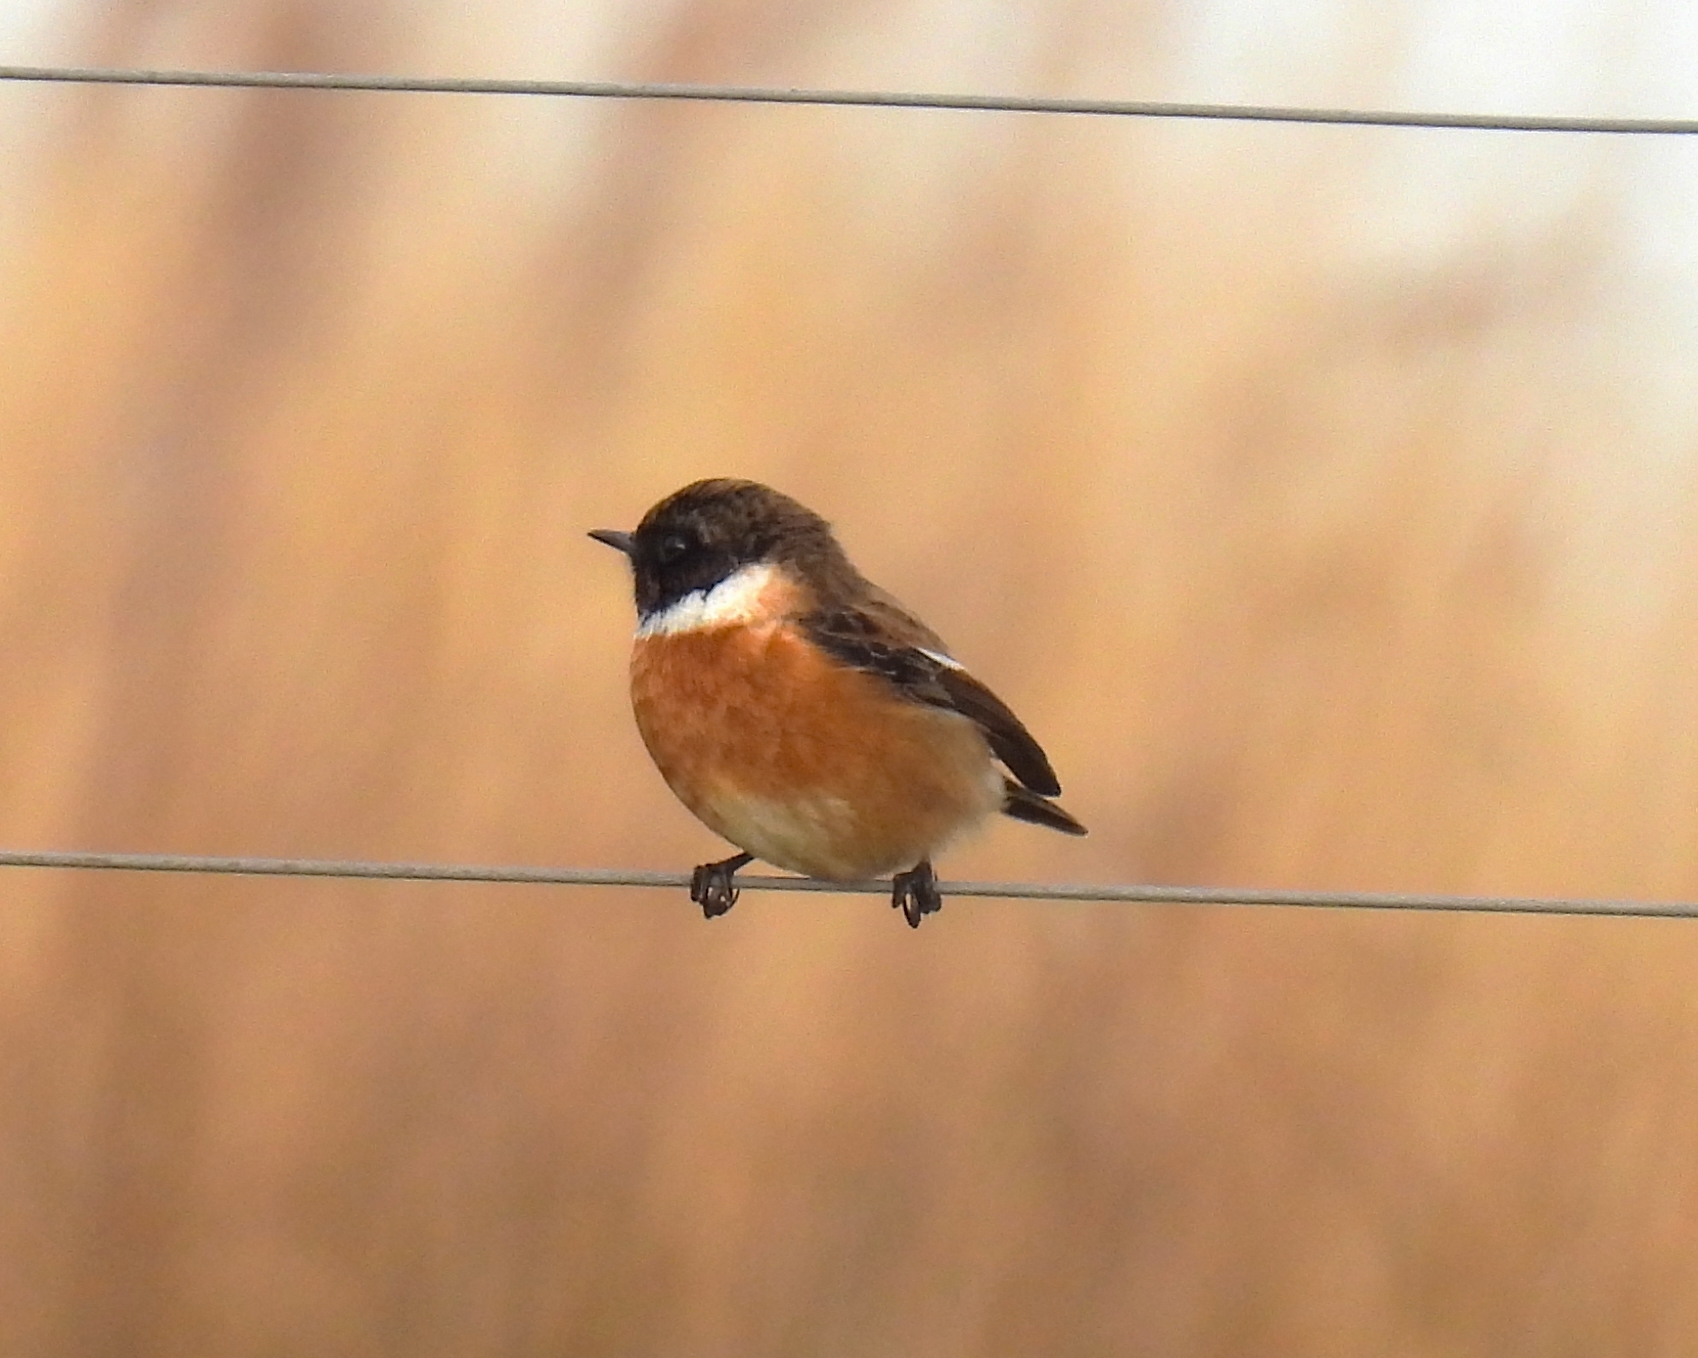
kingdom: Animalia
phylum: Chordata
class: Aves
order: Passeriformes
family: Muscicapidae
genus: Saxicola
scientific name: Saxicola rubicola
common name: European stonechat
